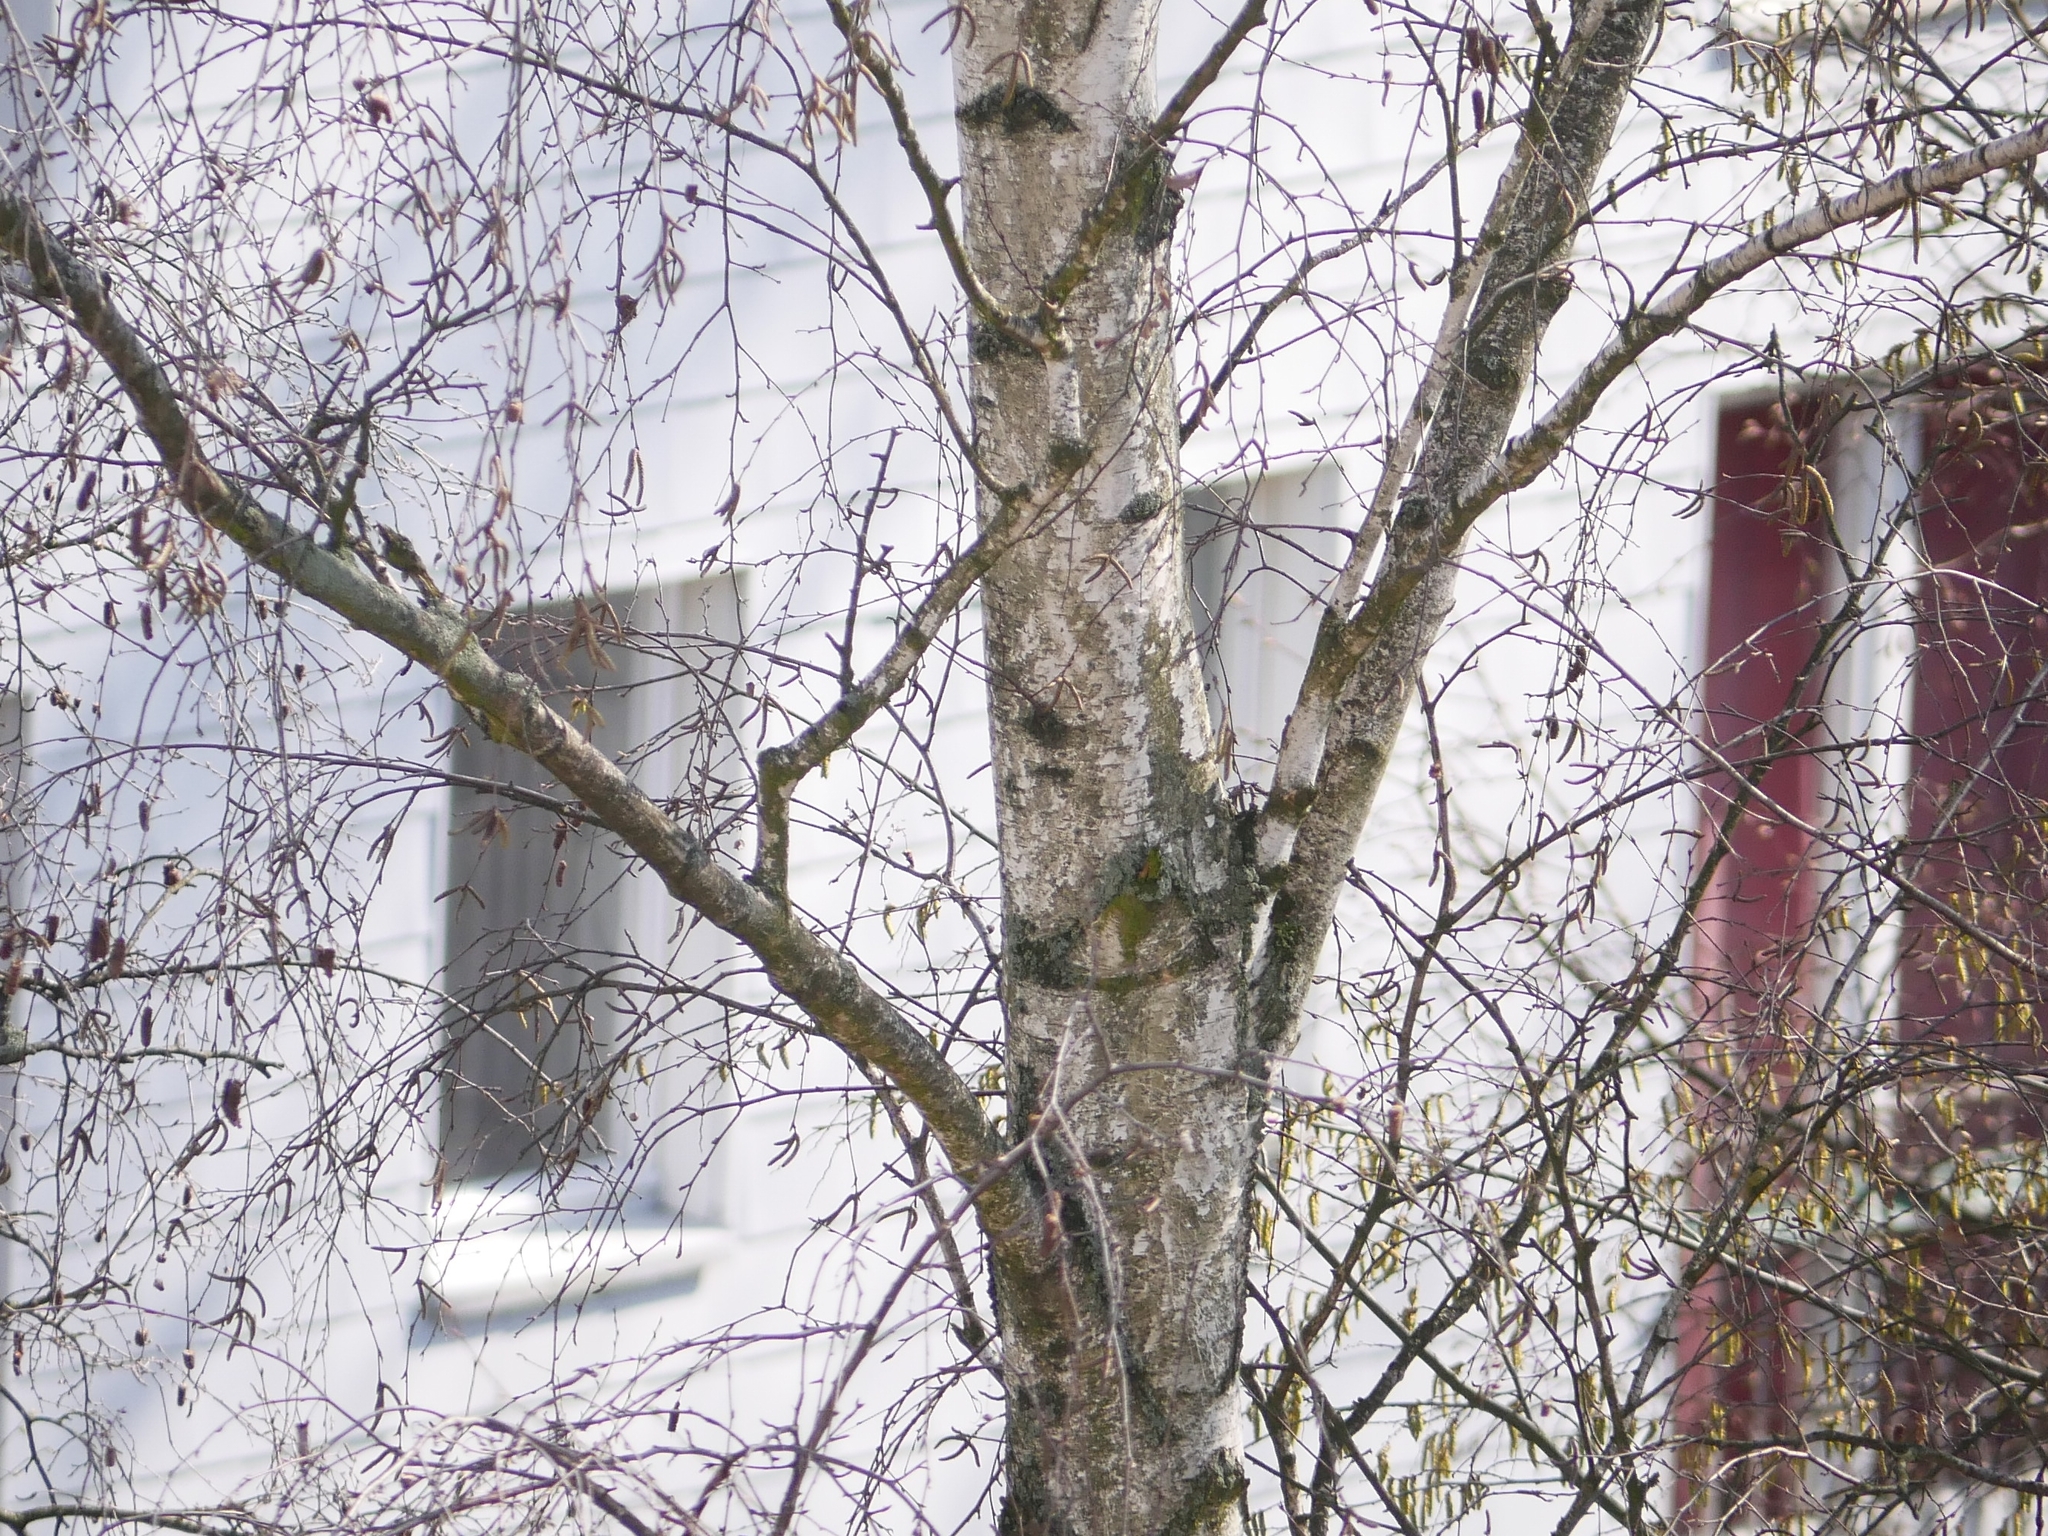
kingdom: Plantae
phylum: Tracheophyta
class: Magnoliopsida
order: Fagales
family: Betulaceae
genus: Betula
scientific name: Betula pendula
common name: Silver birch
